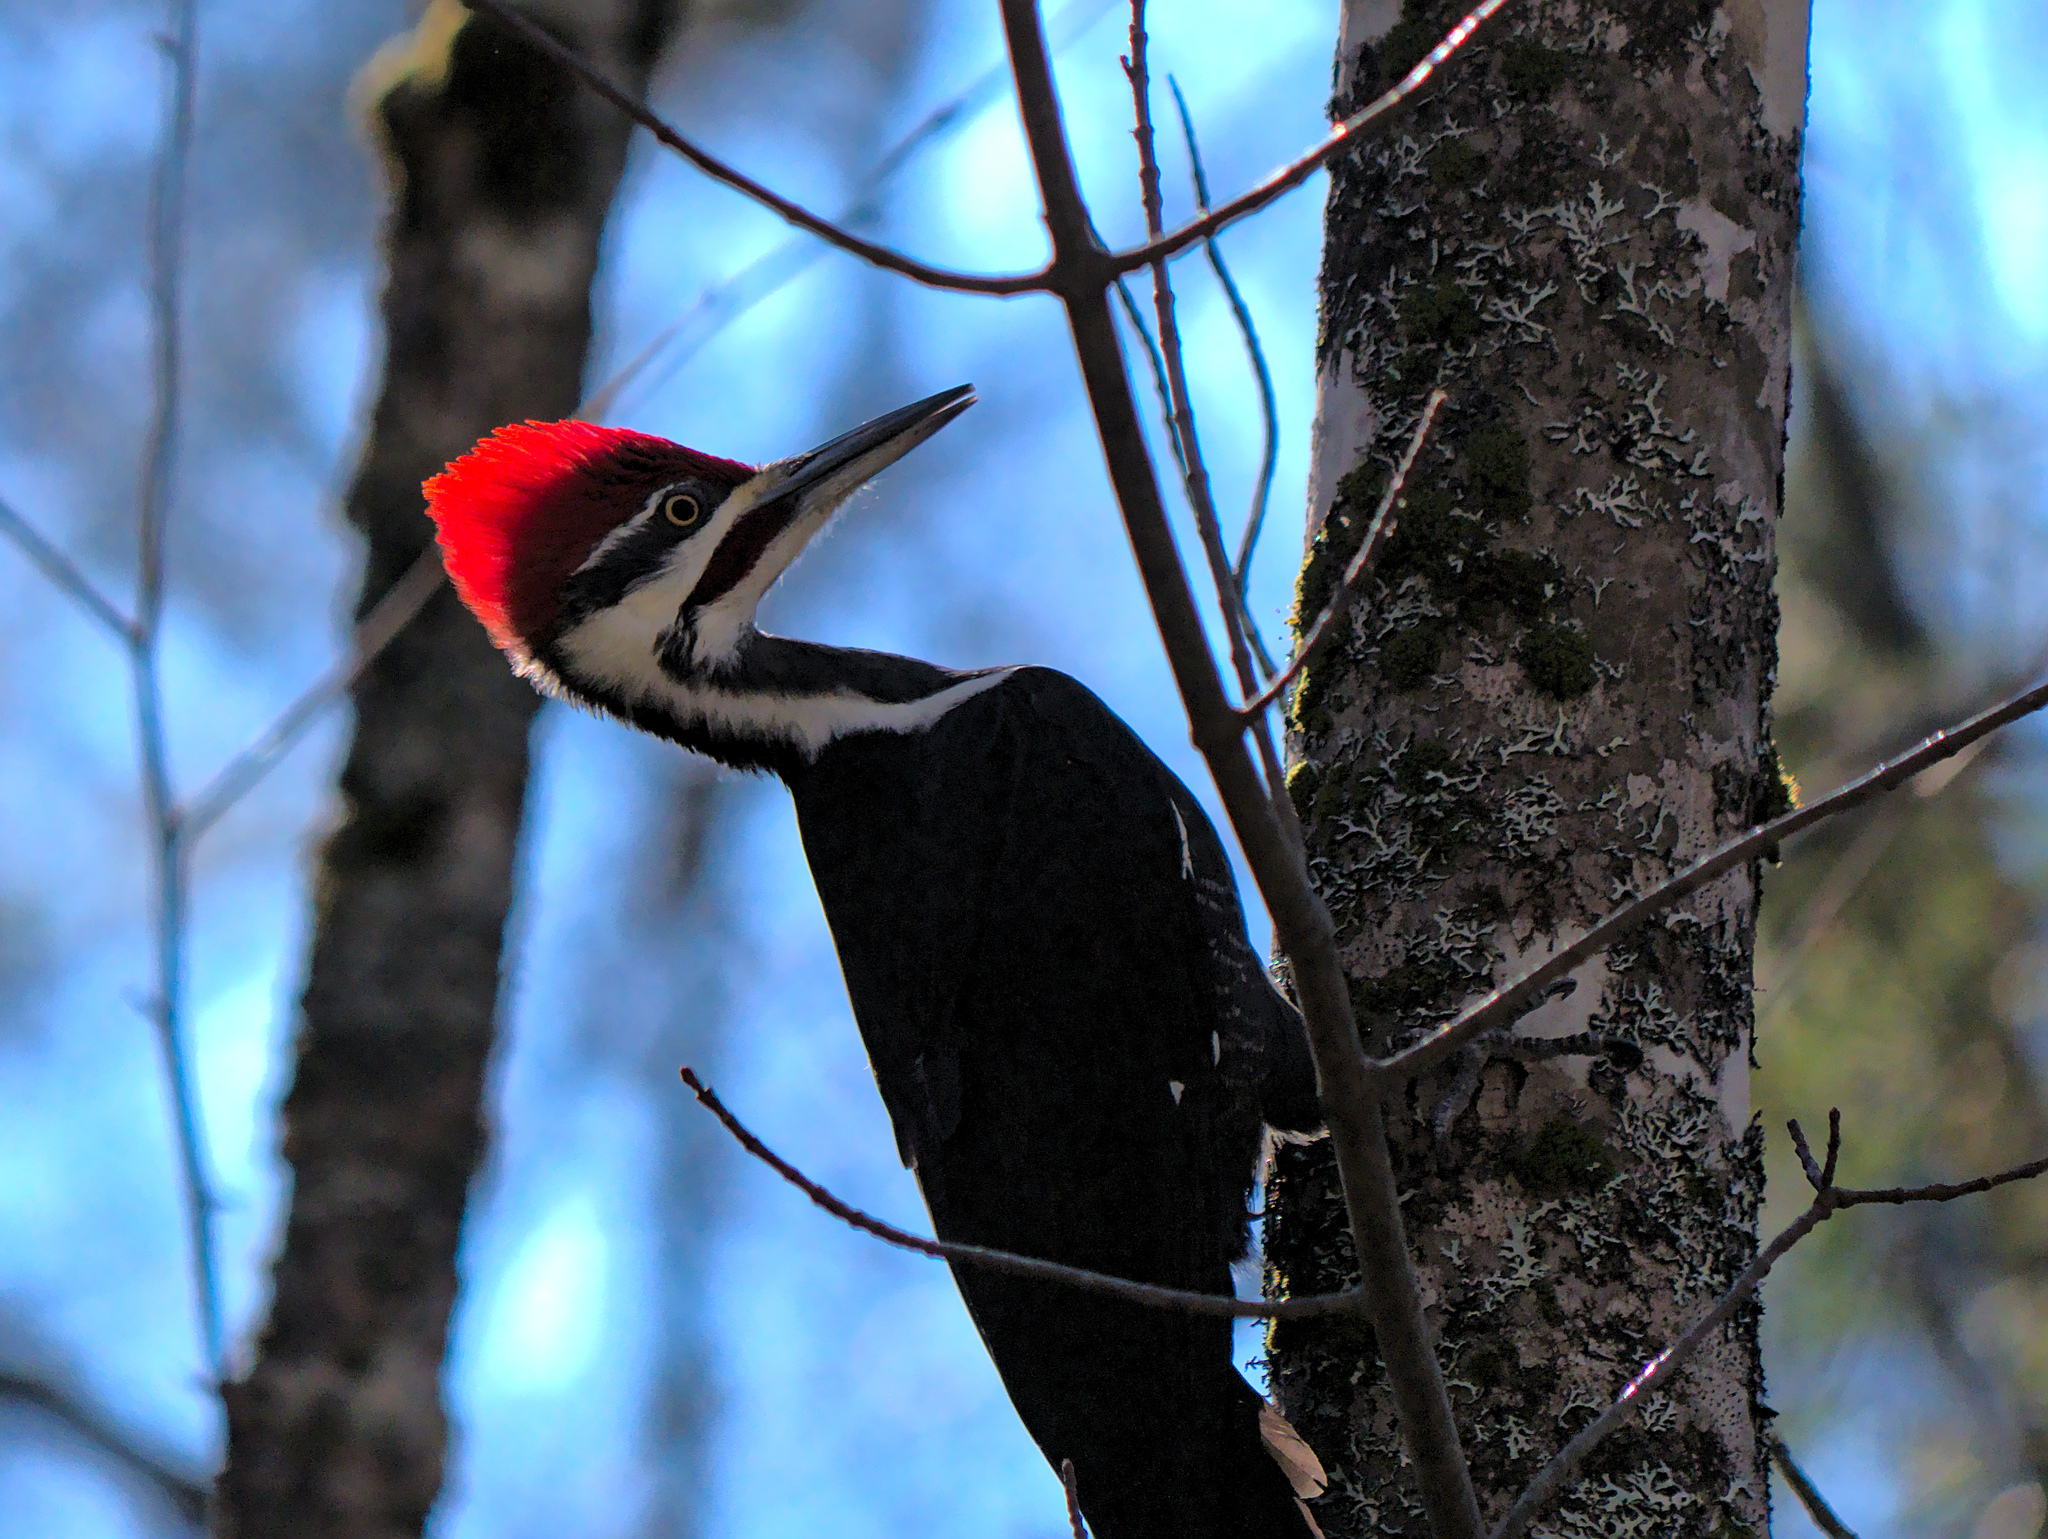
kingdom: Animalia
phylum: Chordata
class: Aves
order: Piciformes
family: Picidae
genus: Dryocopus
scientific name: Dryocopus pileatus
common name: Pileated woodpecker
